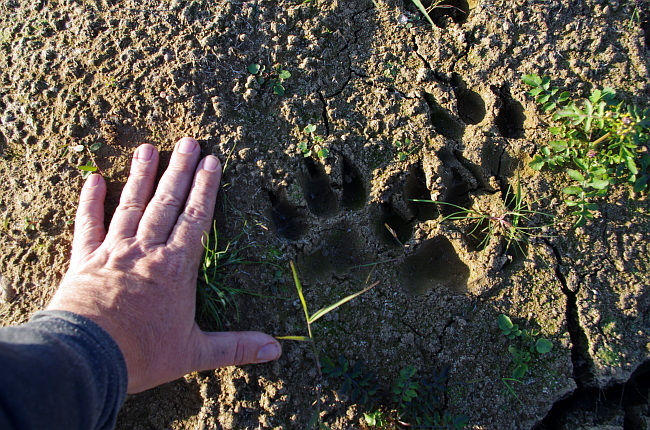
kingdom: Animalia
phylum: Chordata
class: Mammalia
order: Carnivora
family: Canidae
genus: Canis
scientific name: Canis lupus
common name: Gray wolf
